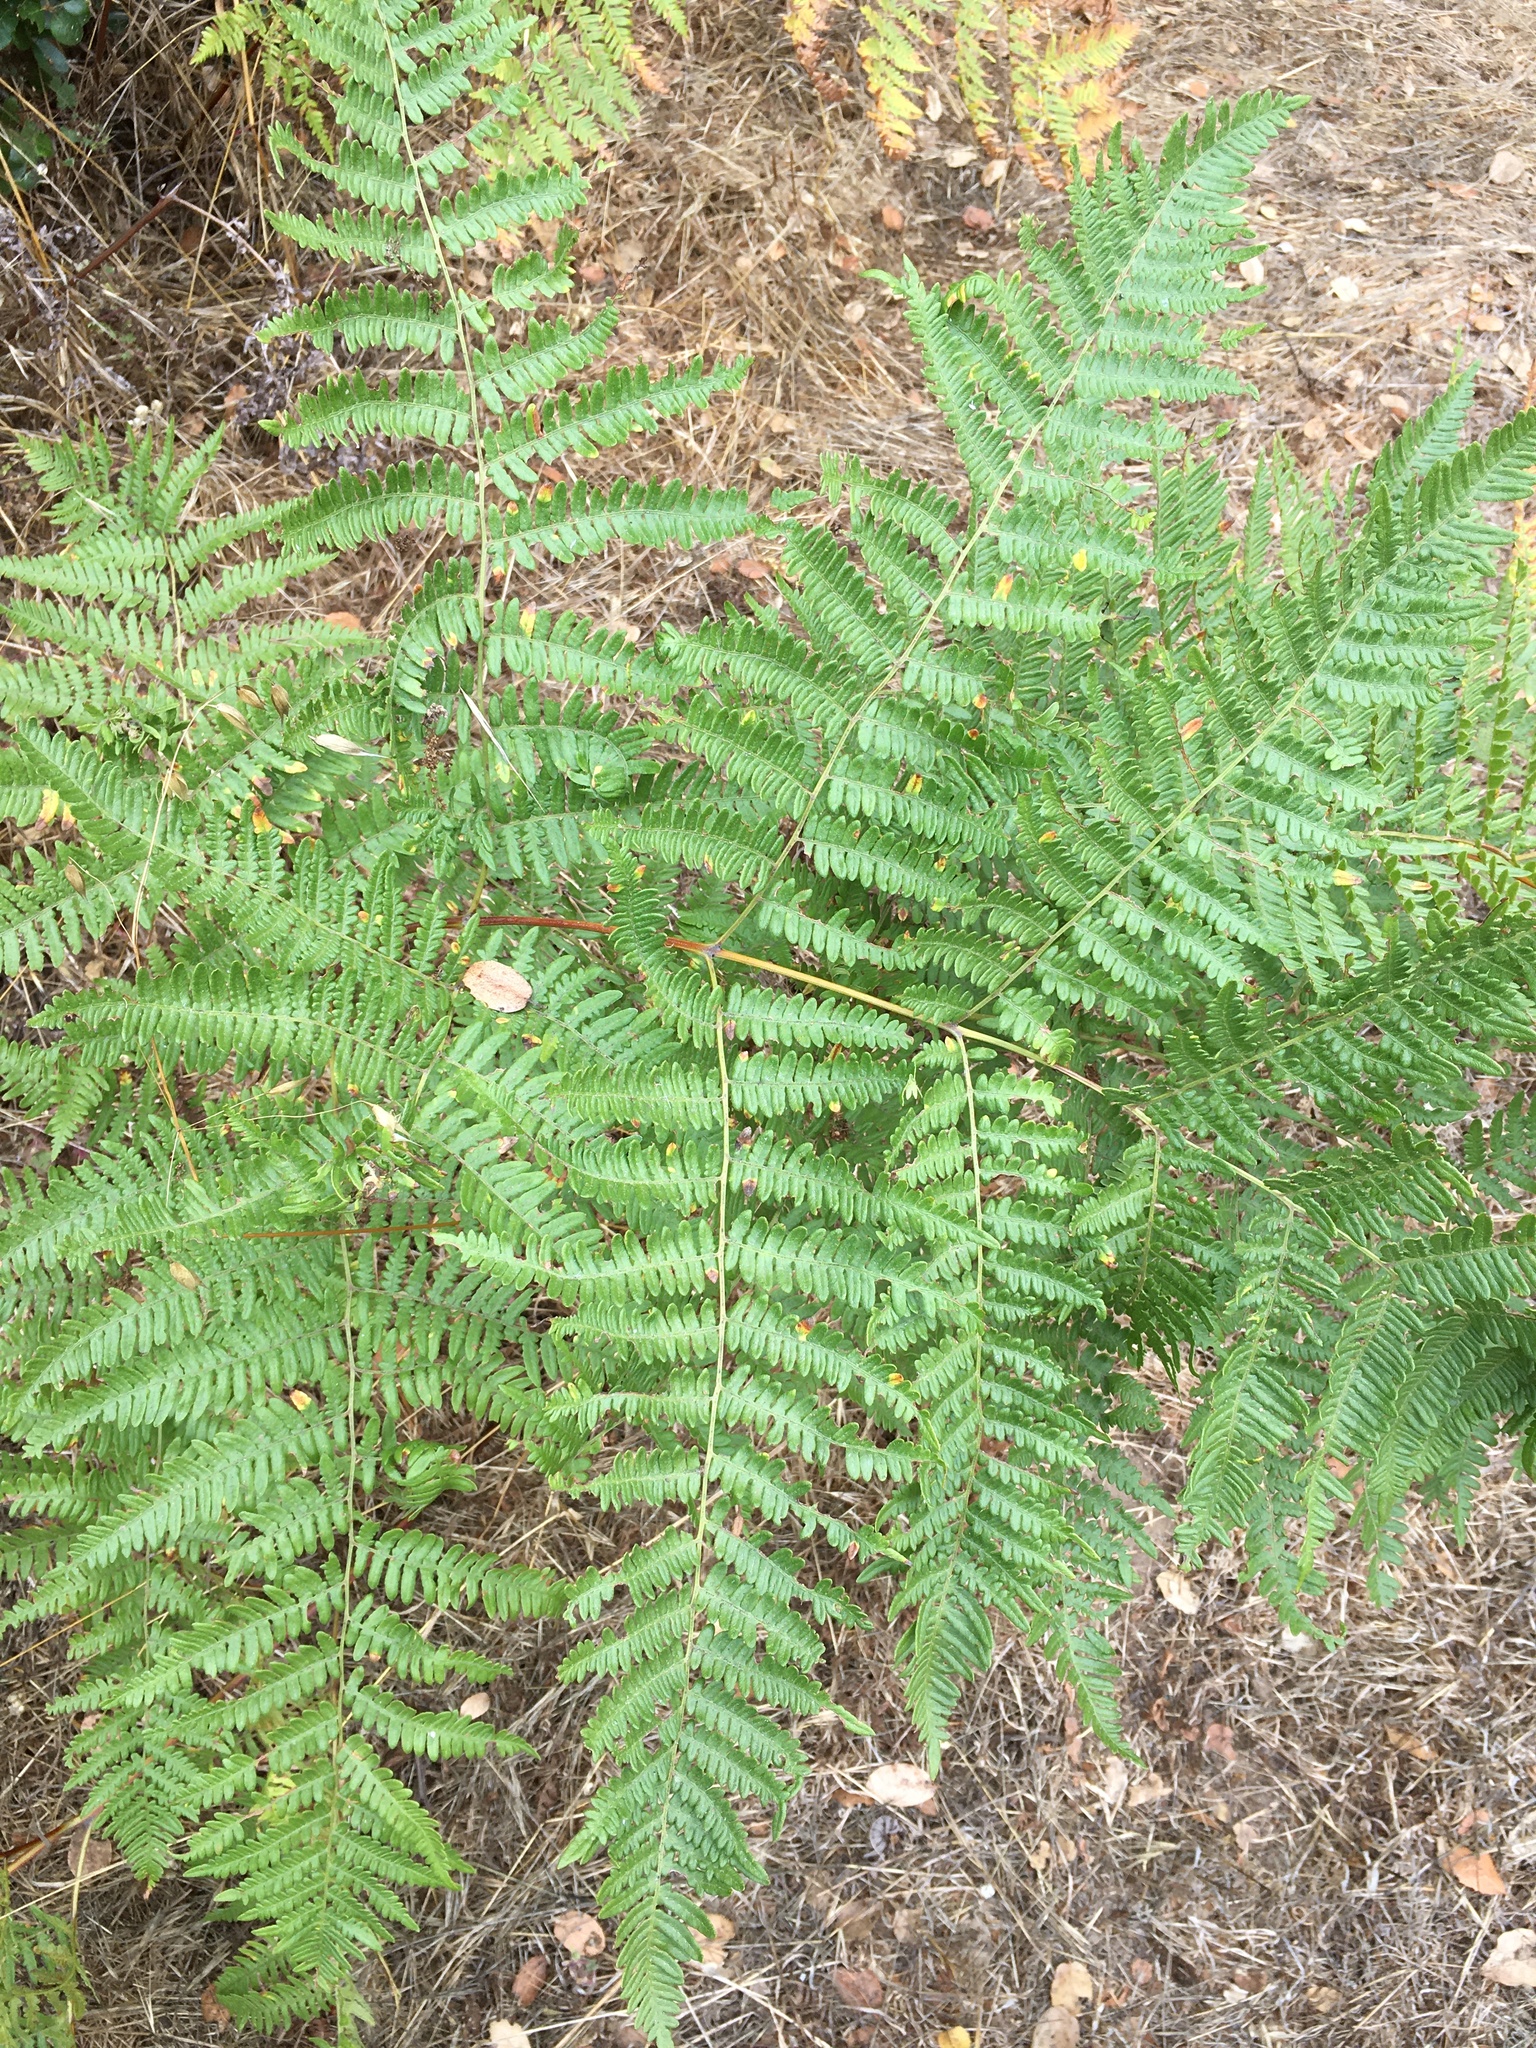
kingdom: Plantae
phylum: Tracheophyta
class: Polypodiopsida
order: Polypodiales
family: Dennstaedtiaceae
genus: Pteridium
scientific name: Pteridium aquilinum
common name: Bracken
